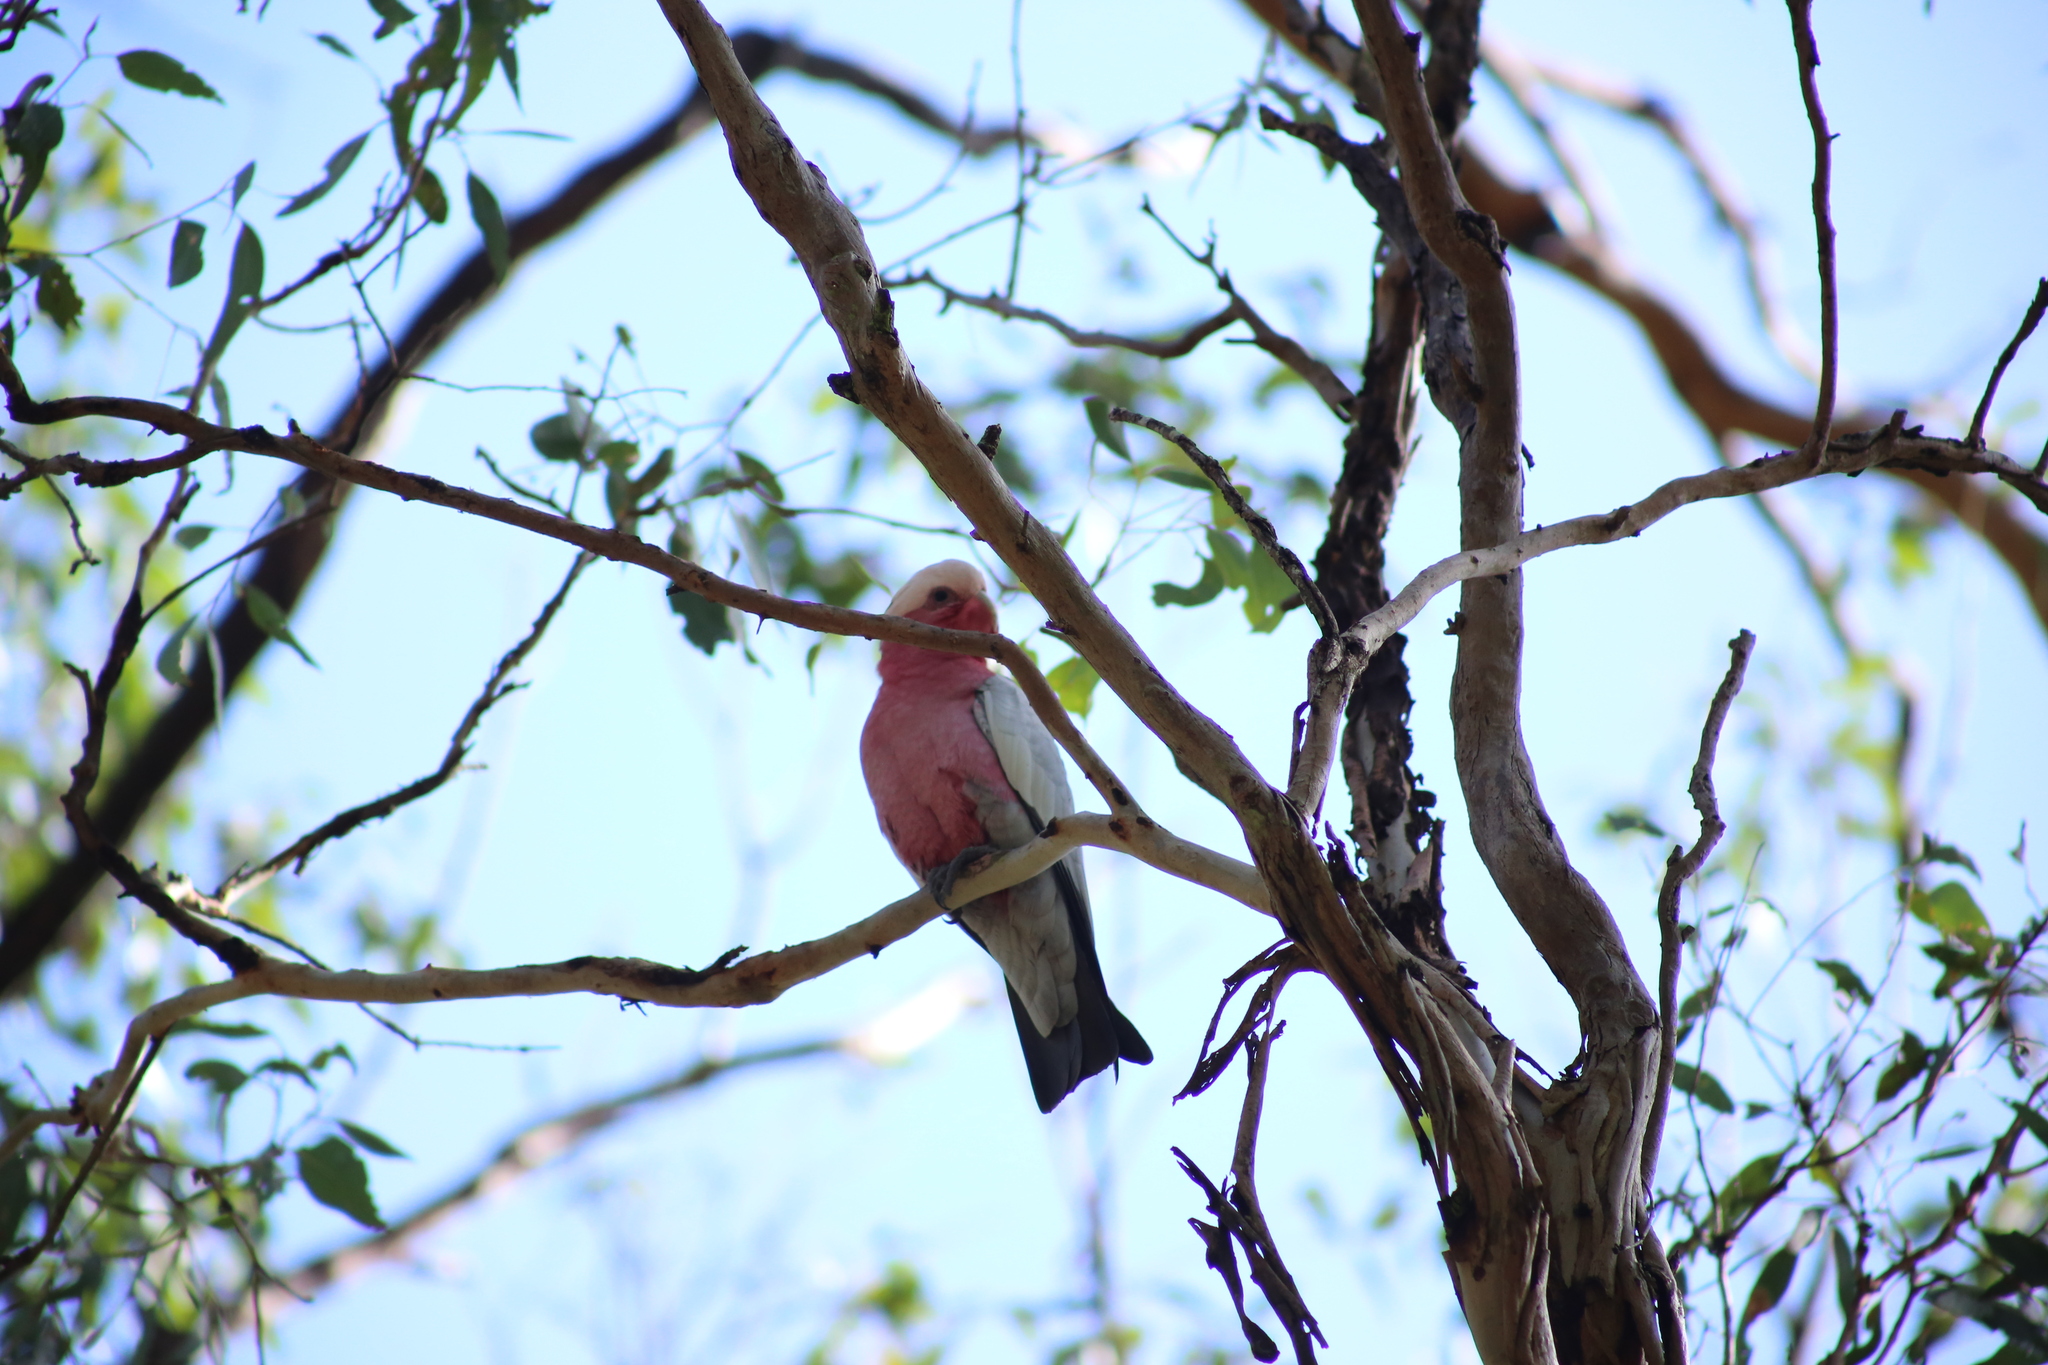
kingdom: Animalia
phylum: Chordata
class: Aves
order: Psittaciformes
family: Psittacidae
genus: Eolophus
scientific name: Eolophus roseicapilla
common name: Galah
